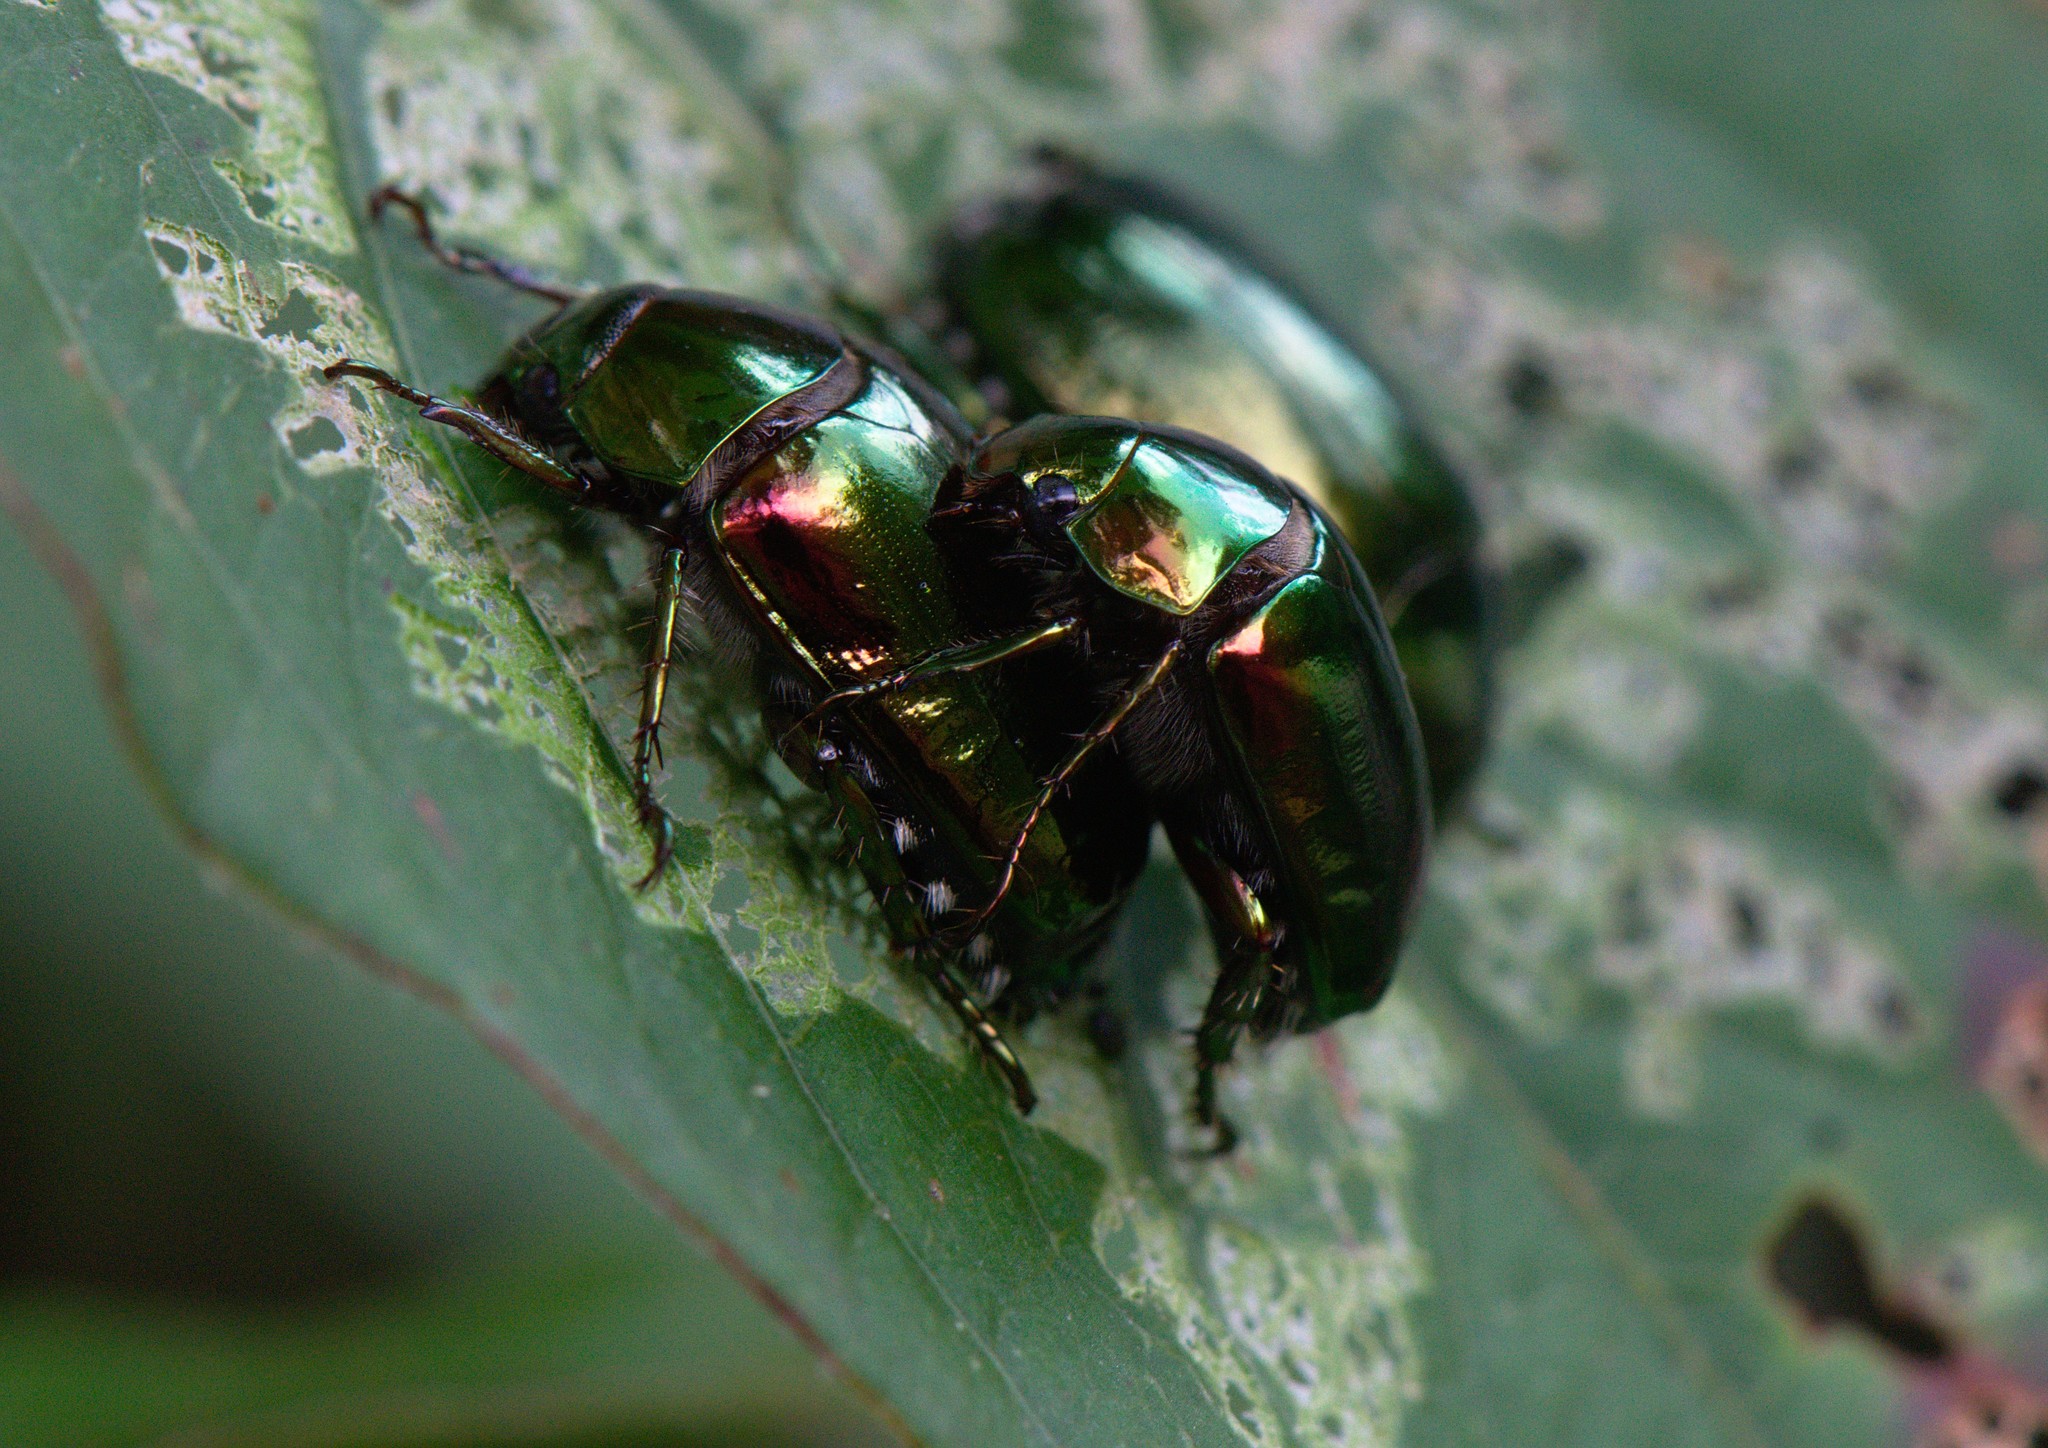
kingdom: Animalia
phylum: Arthropoda
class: Insecta
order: Coleoptera
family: Scarabaeidae
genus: Callistethus
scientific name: Callistethus auronitens
